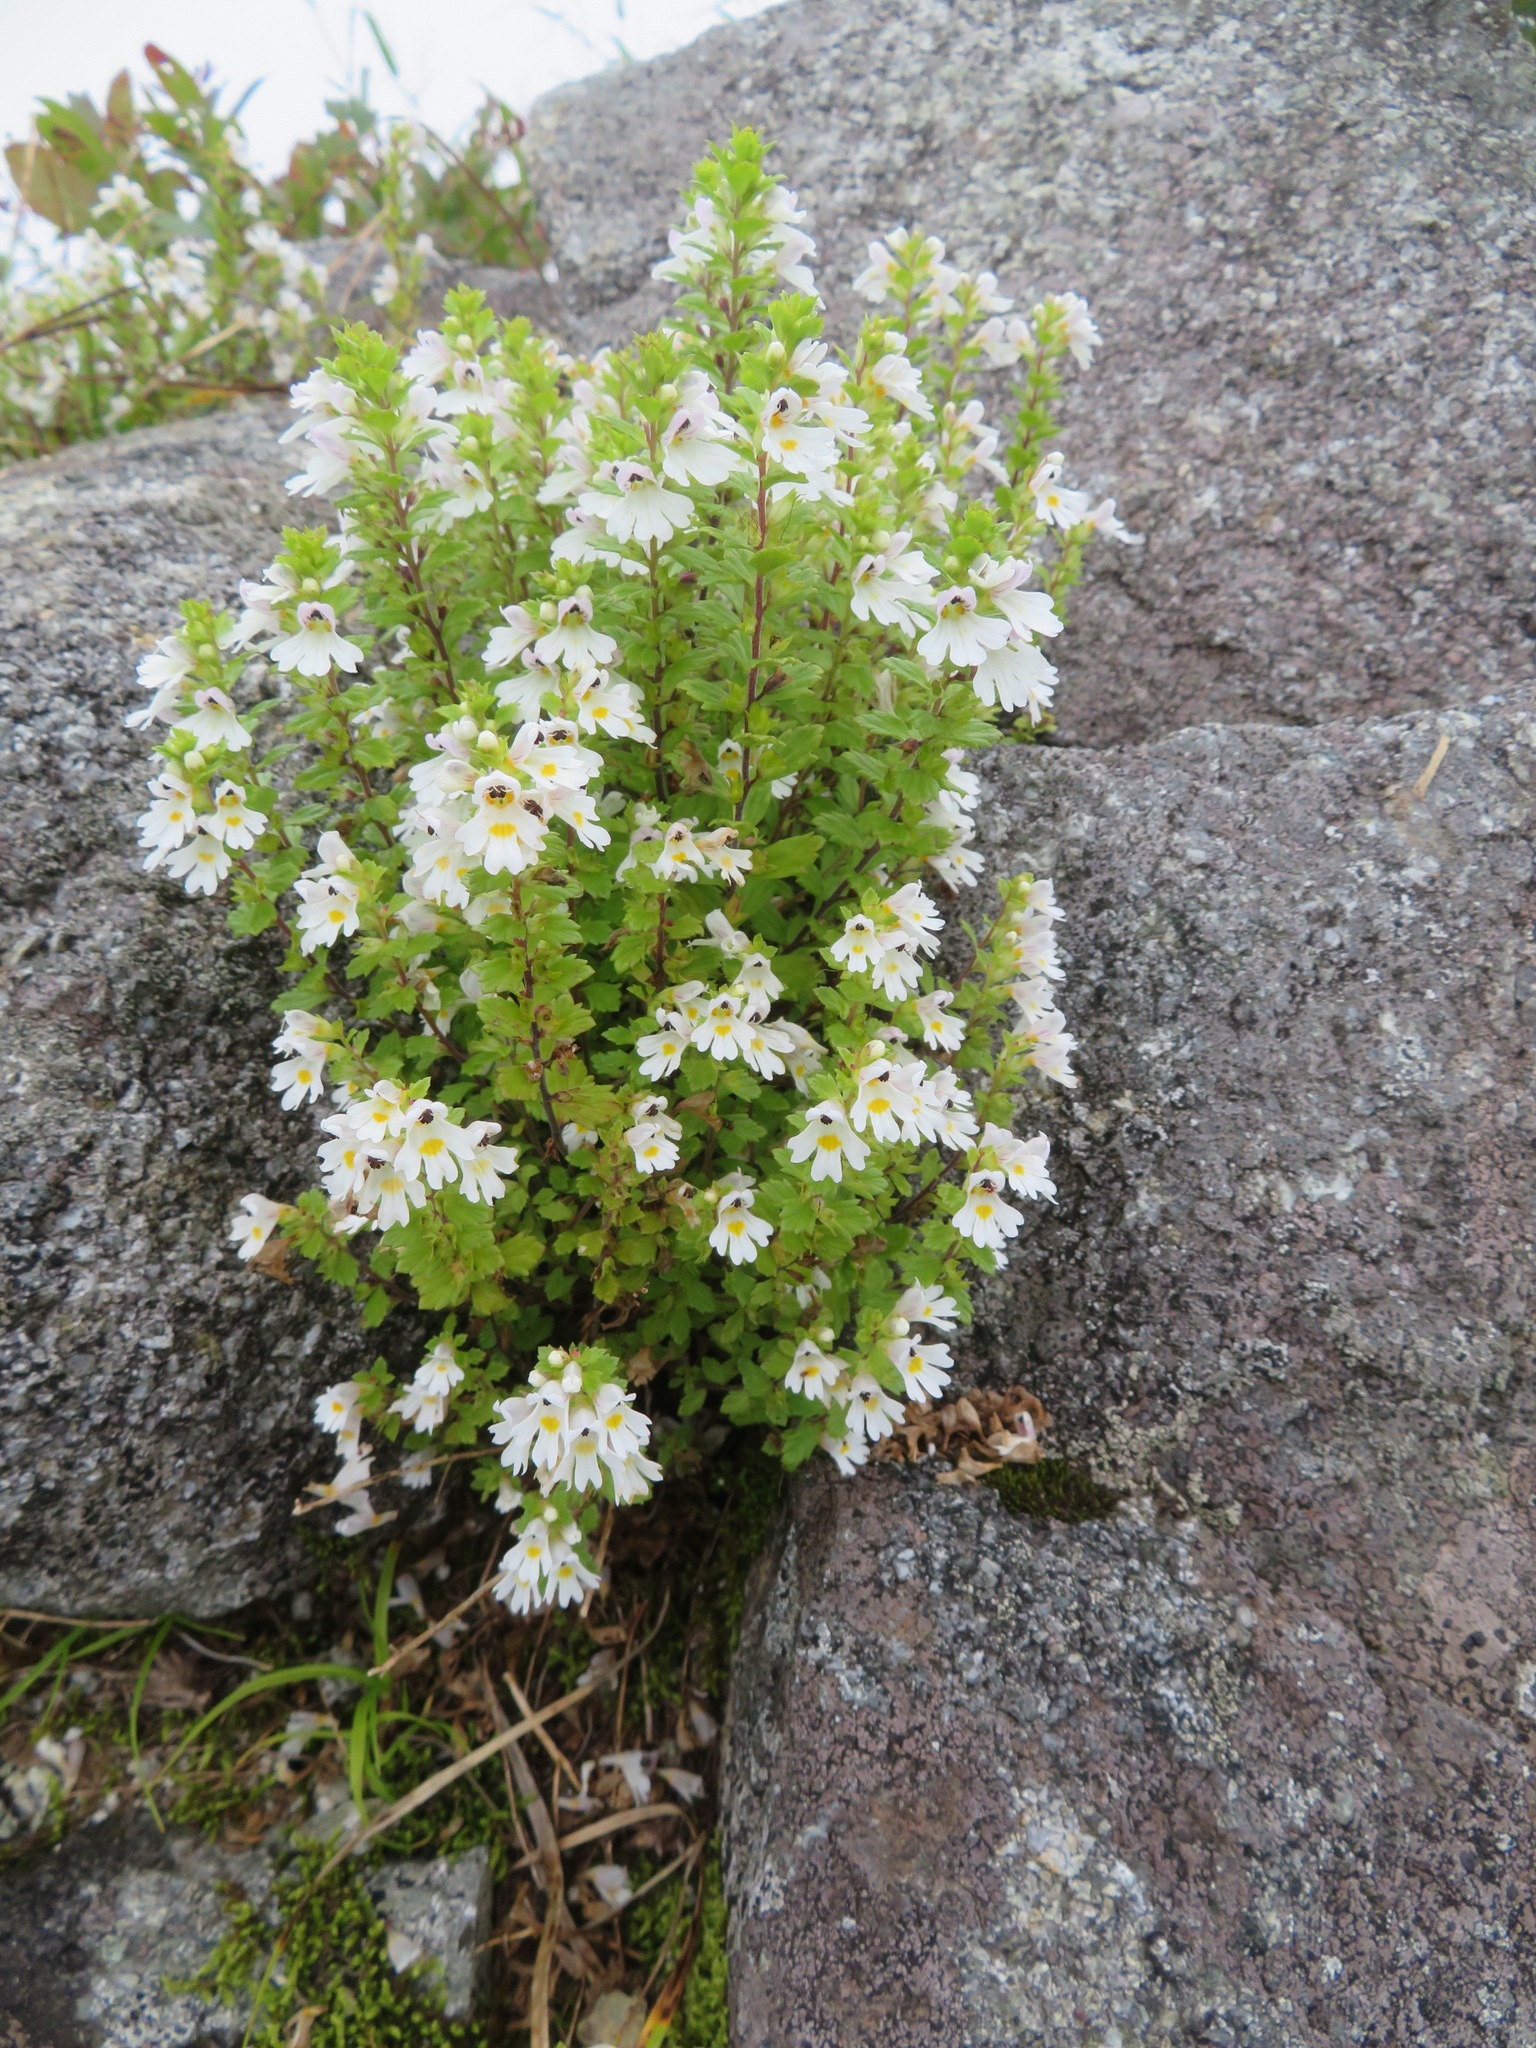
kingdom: Plantae
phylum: Tracheophyta
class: Magnoliopsida
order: Lamiales
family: Orobanchaceae
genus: Euphrasia
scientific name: Euphrasia insignis
